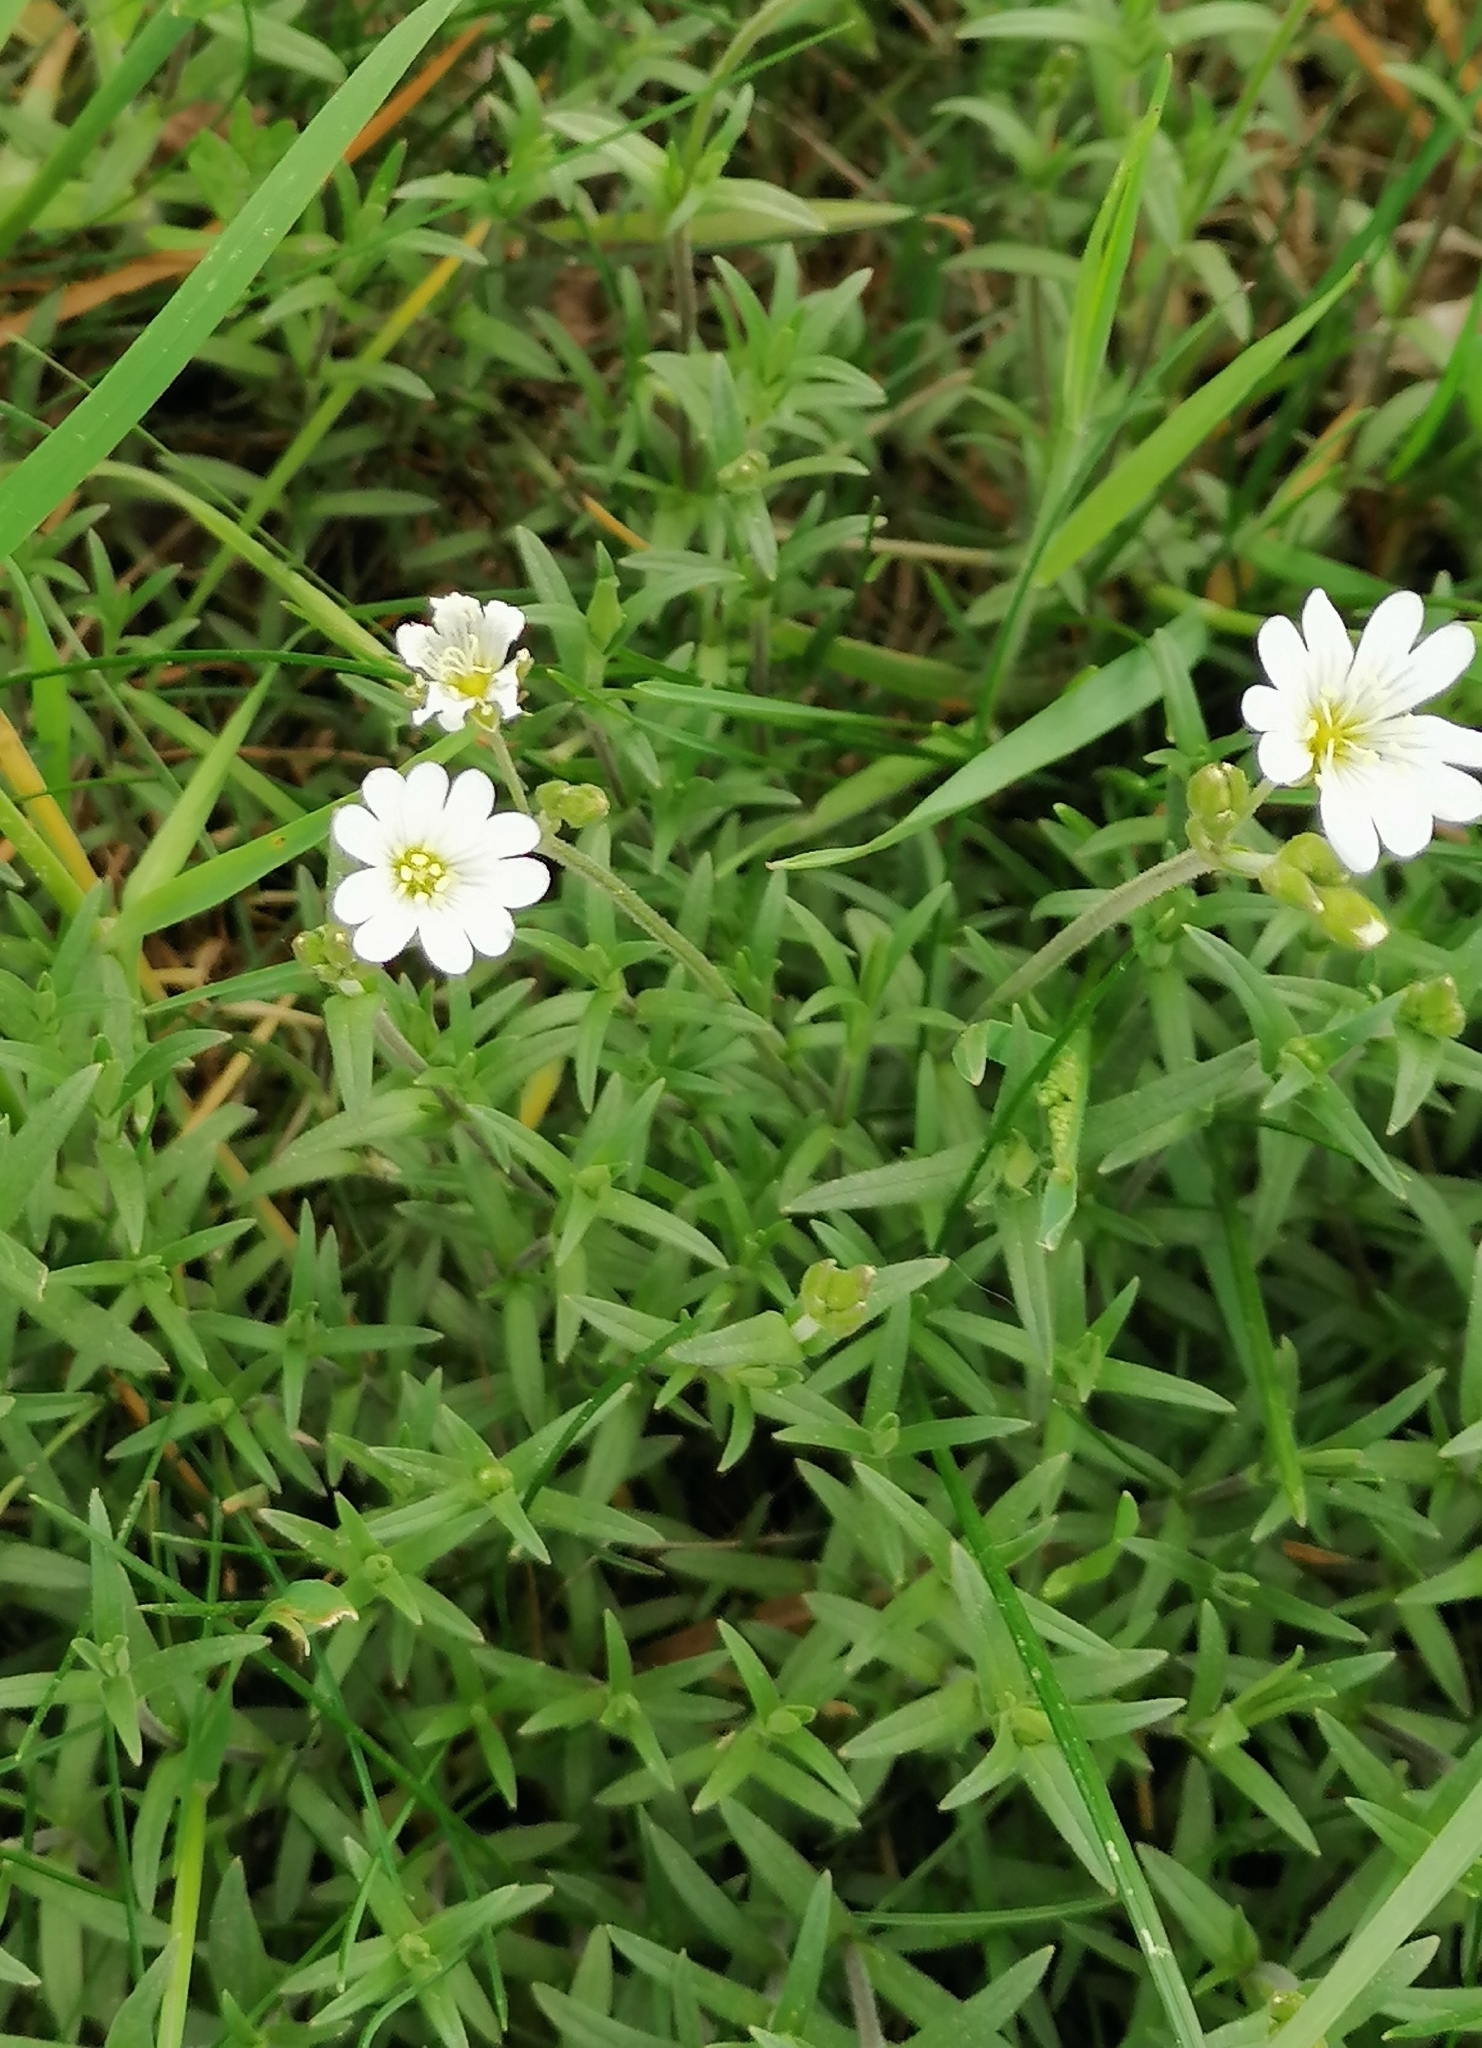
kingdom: Plantae
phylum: Tracheophyta
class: Magnoliopsida
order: Caryophyllales
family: Caryophyllaceae
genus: Cerastium
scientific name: Cerastium arvense
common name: Field mouse-ear
